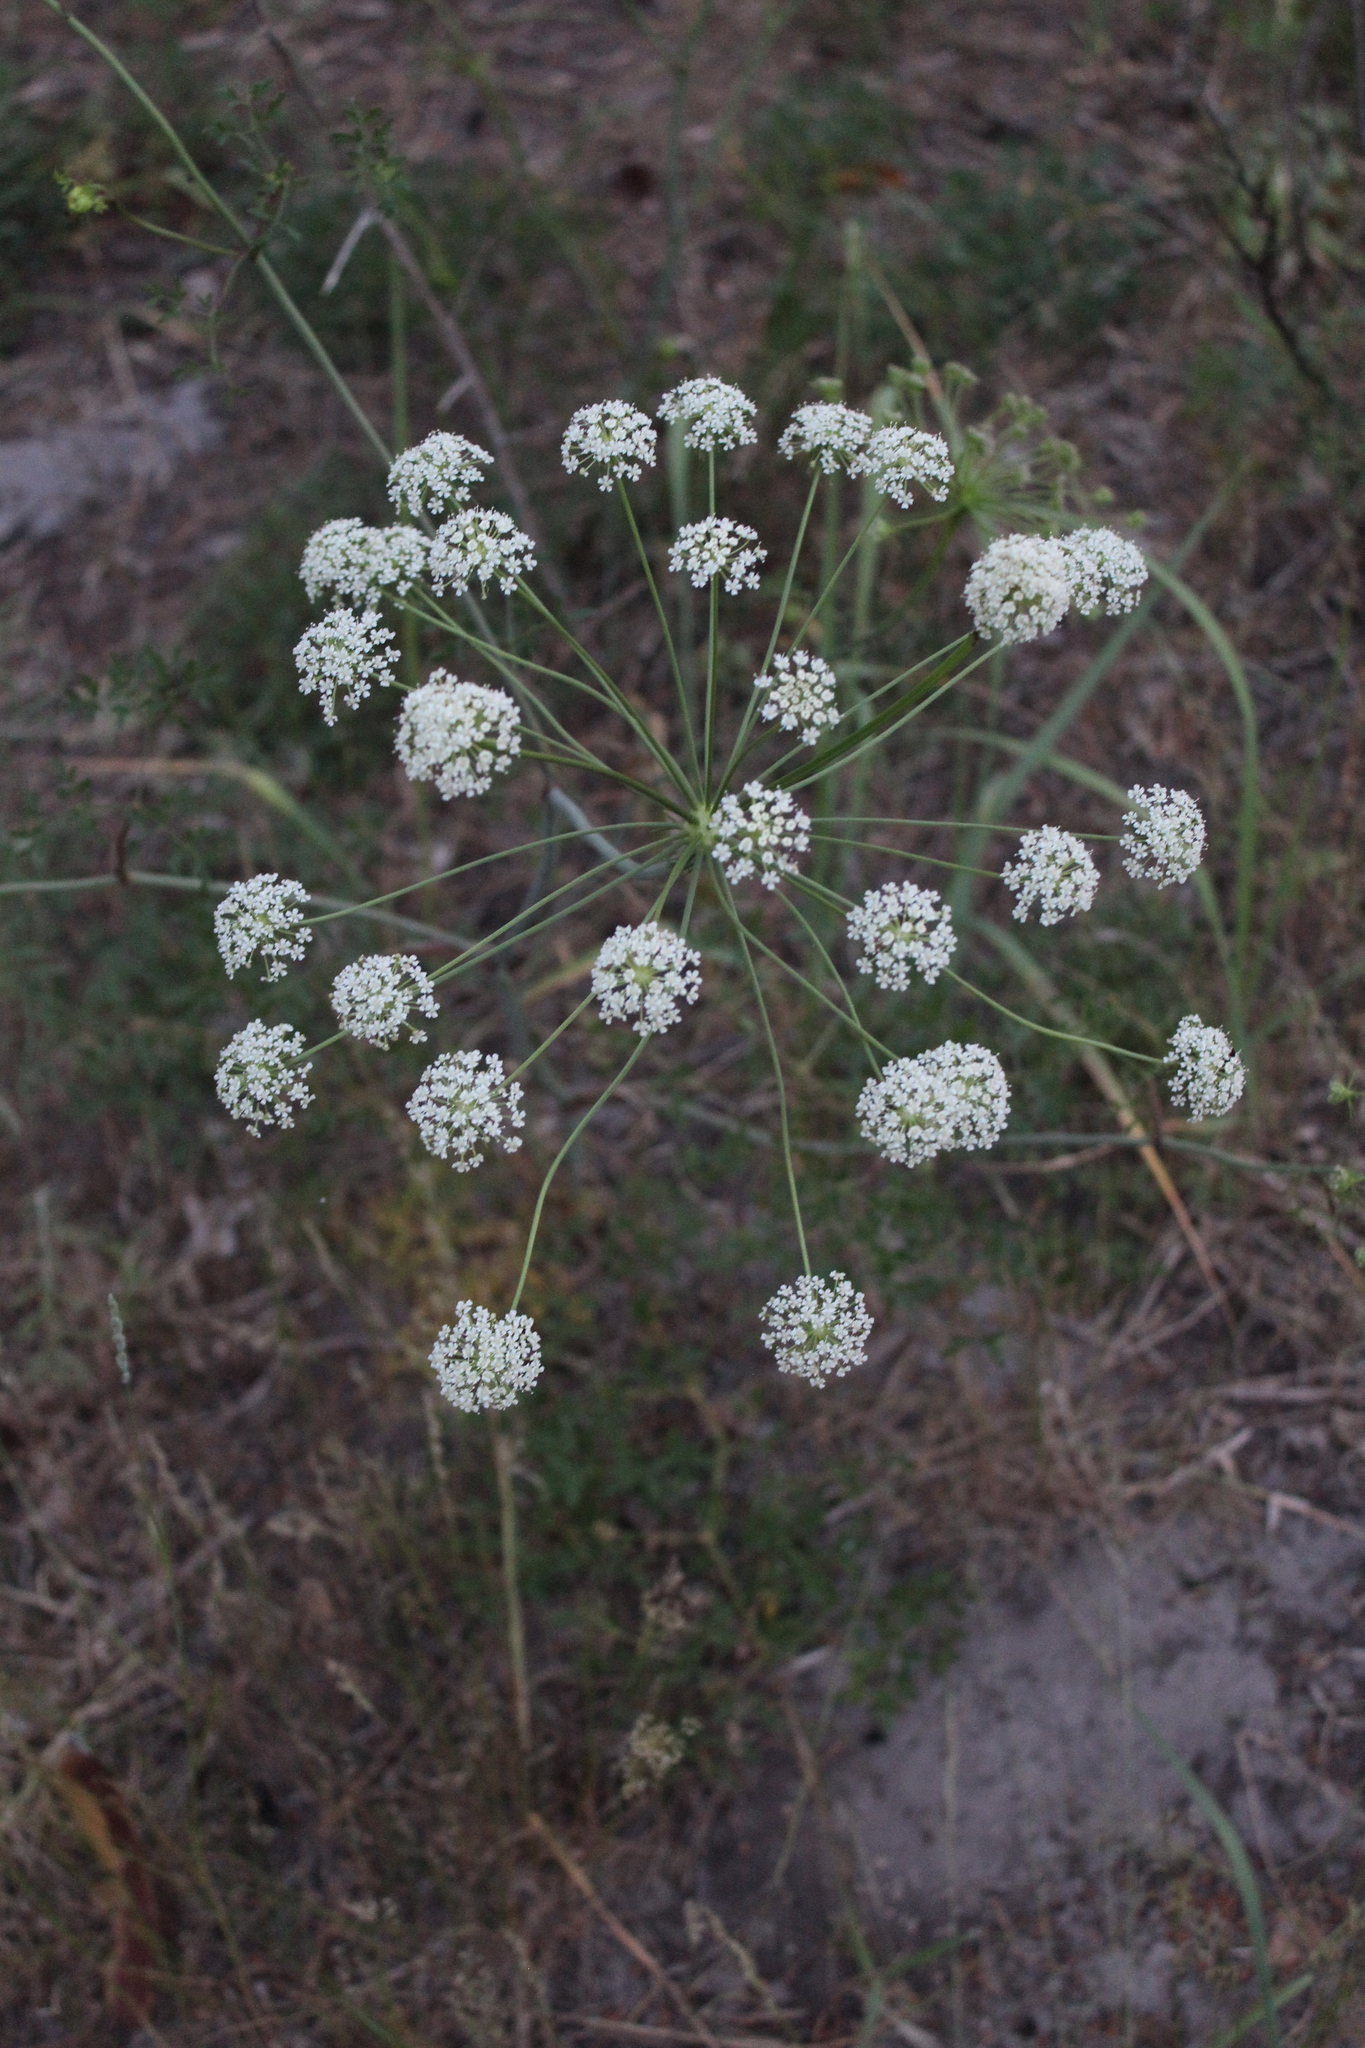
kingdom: Plantae
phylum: Tracheophyta
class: Magnoliopsida
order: Apiales
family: Apiaceae
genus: Oreoselinum
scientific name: Oreoselinum nigrum
